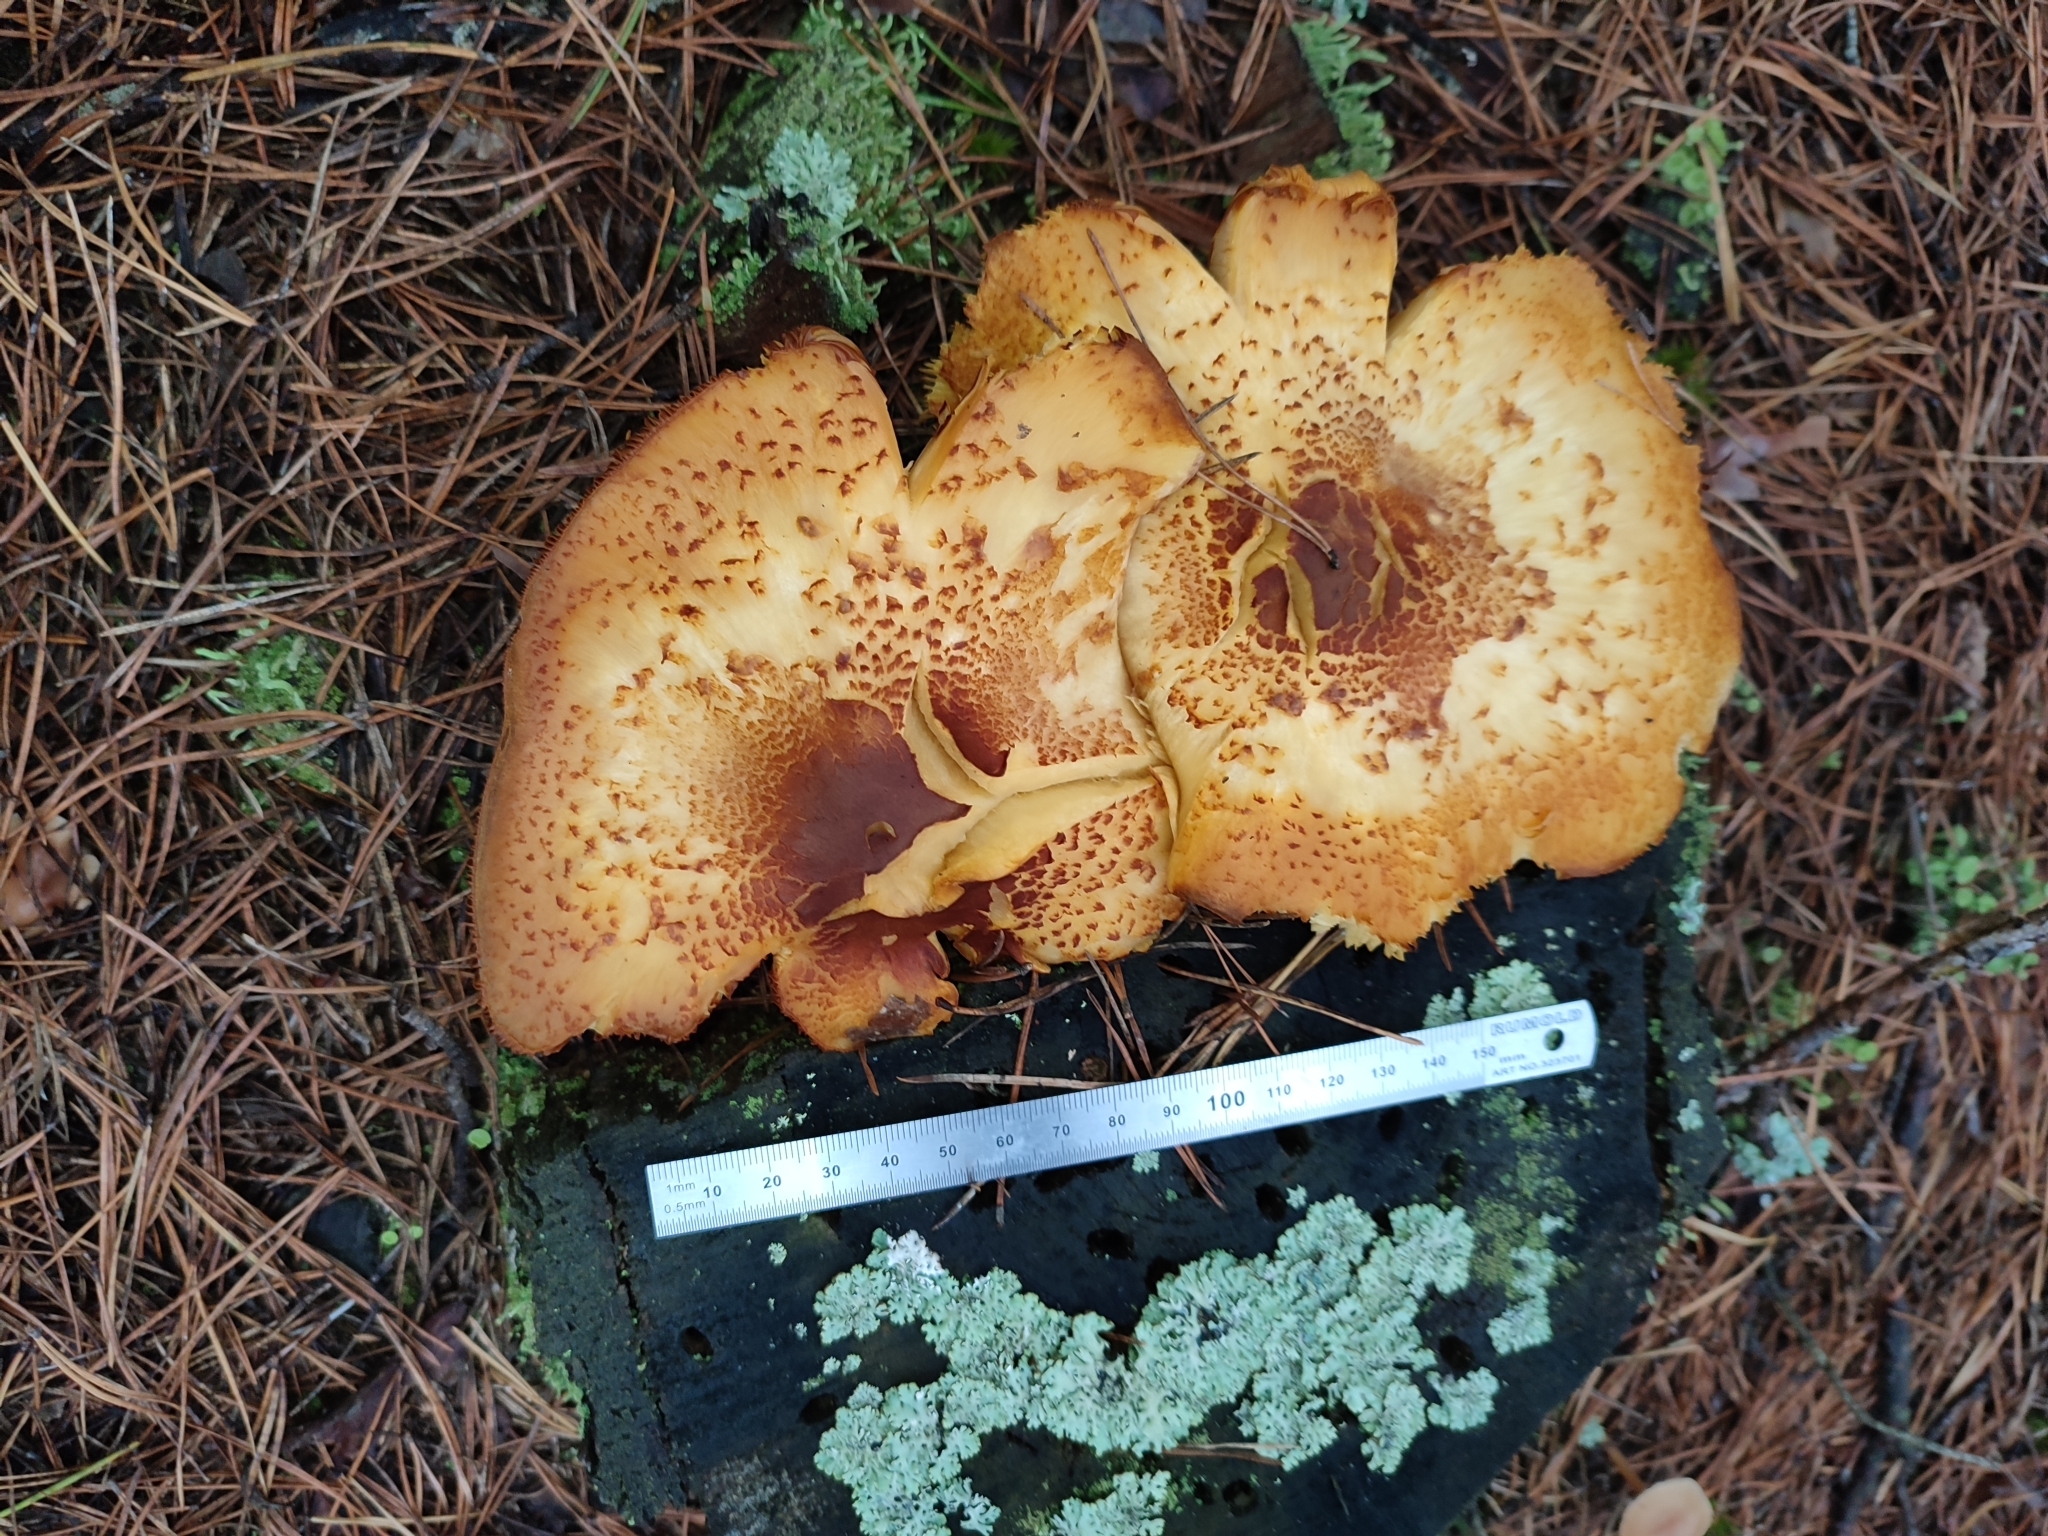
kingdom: Fungi
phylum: Basidiomycota
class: Agaricomycetes
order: Agaricales
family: Tricholomataceae
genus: Tricholomopsis
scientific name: Tricholomopsis rutilans
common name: Plums and custard
